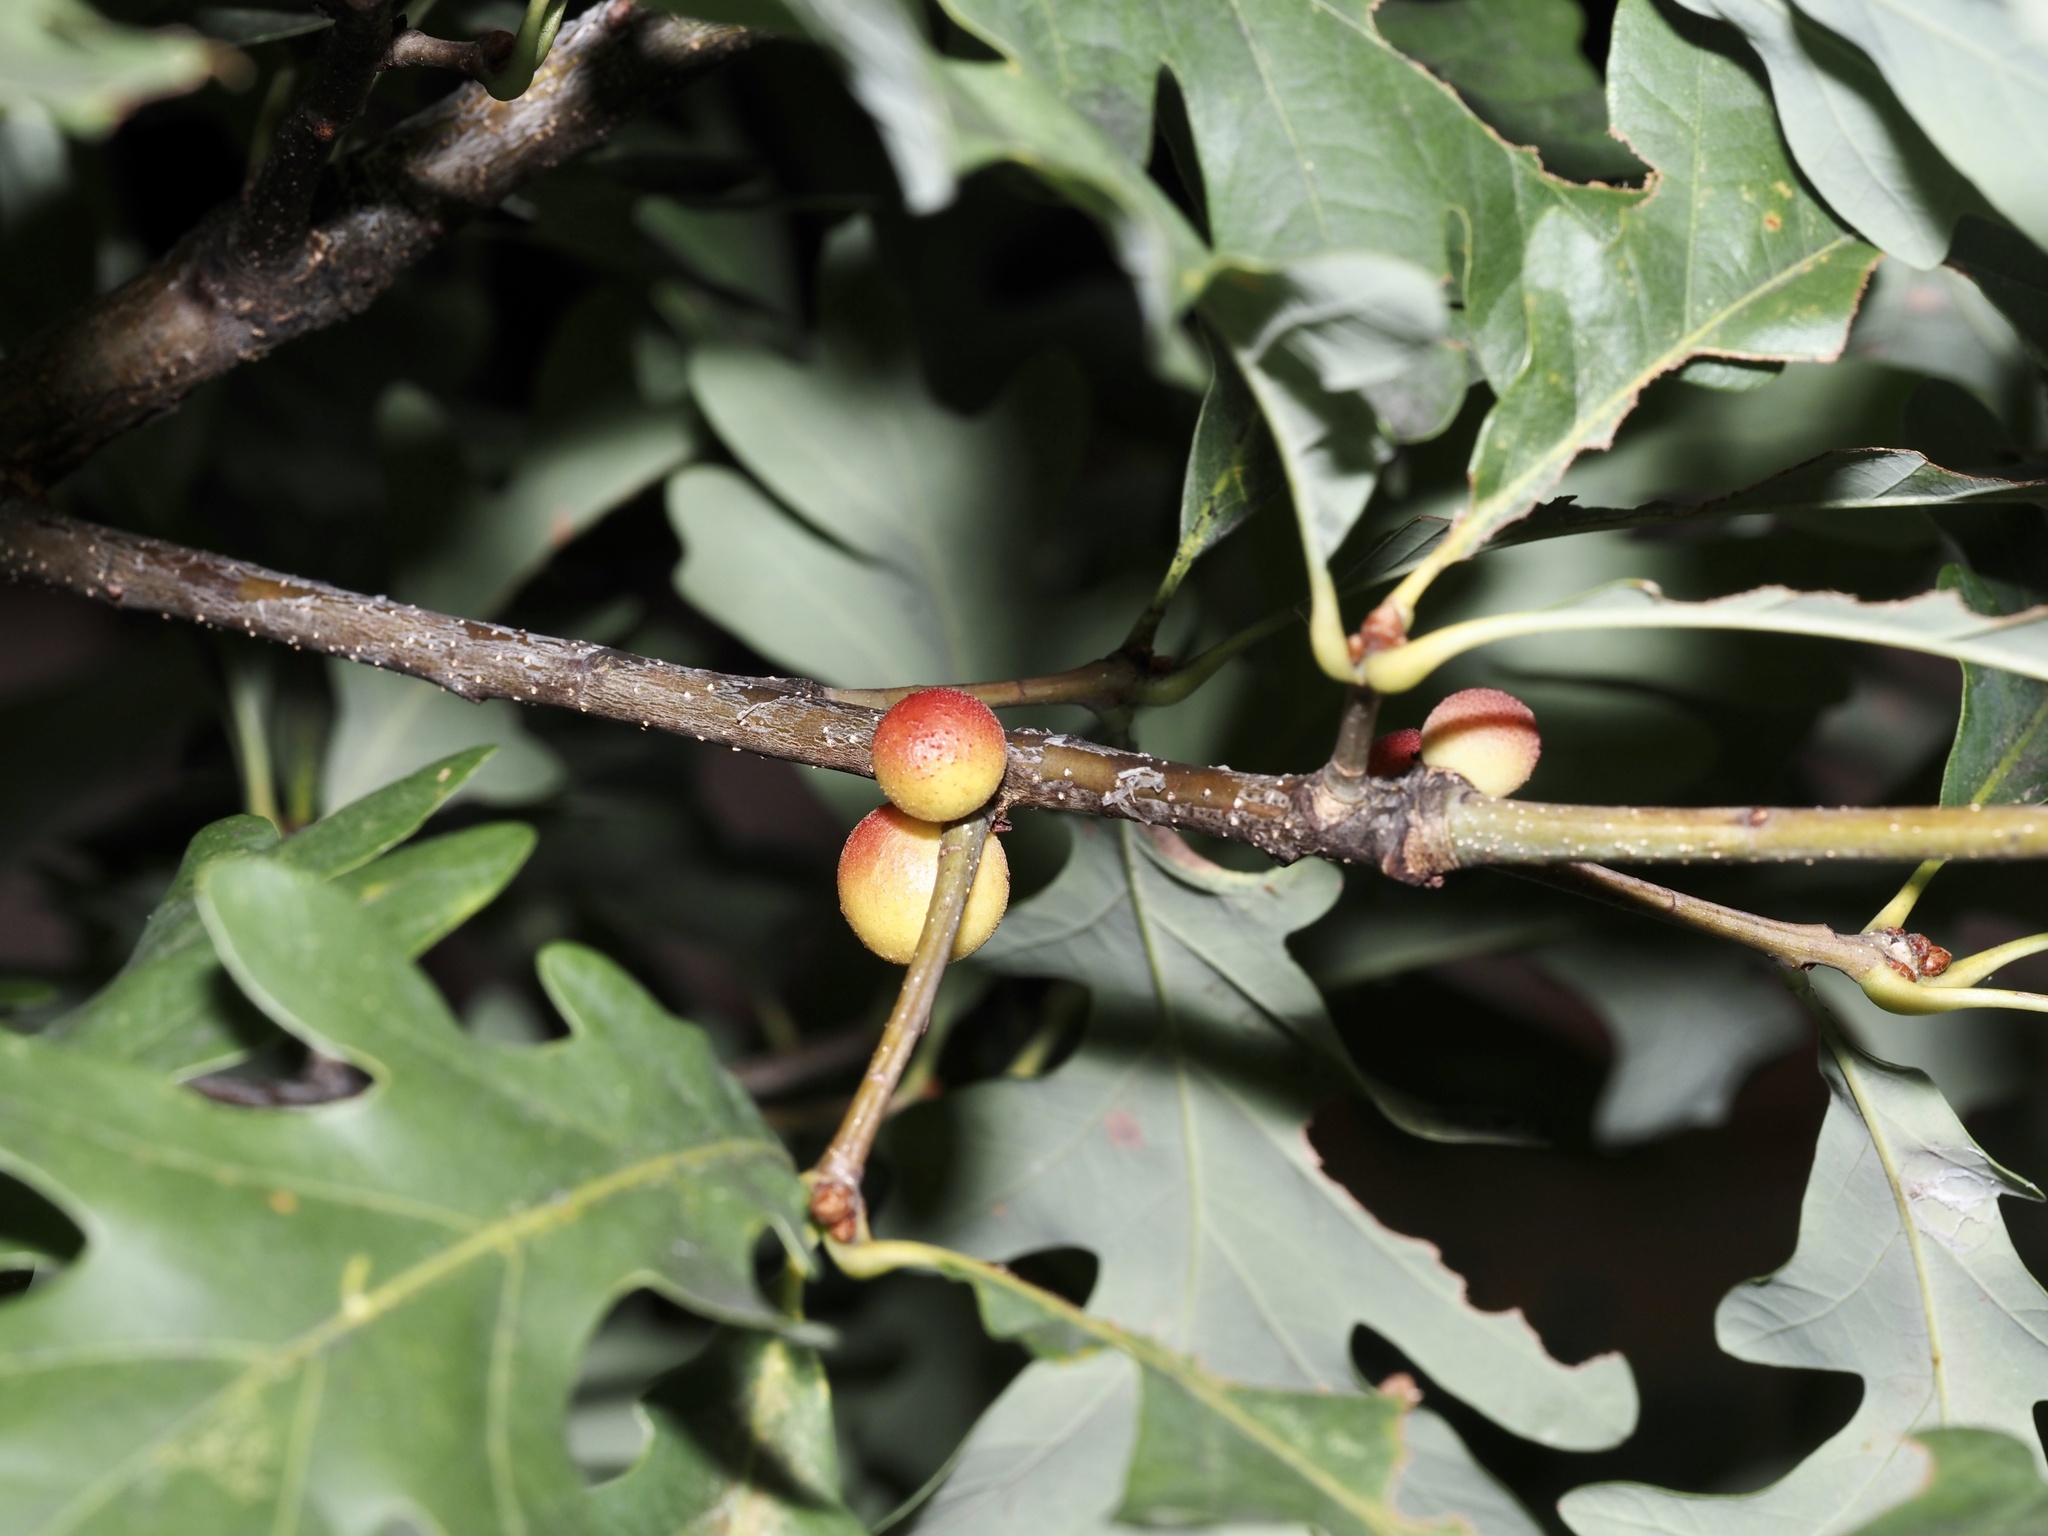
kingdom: Animalia
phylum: Arthropoda
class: Insecta
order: Hymenoptera
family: Cynipidae
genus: Disholcaspis
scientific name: Disholcaspis quercusglobulus
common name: Round bullet gall wasp
